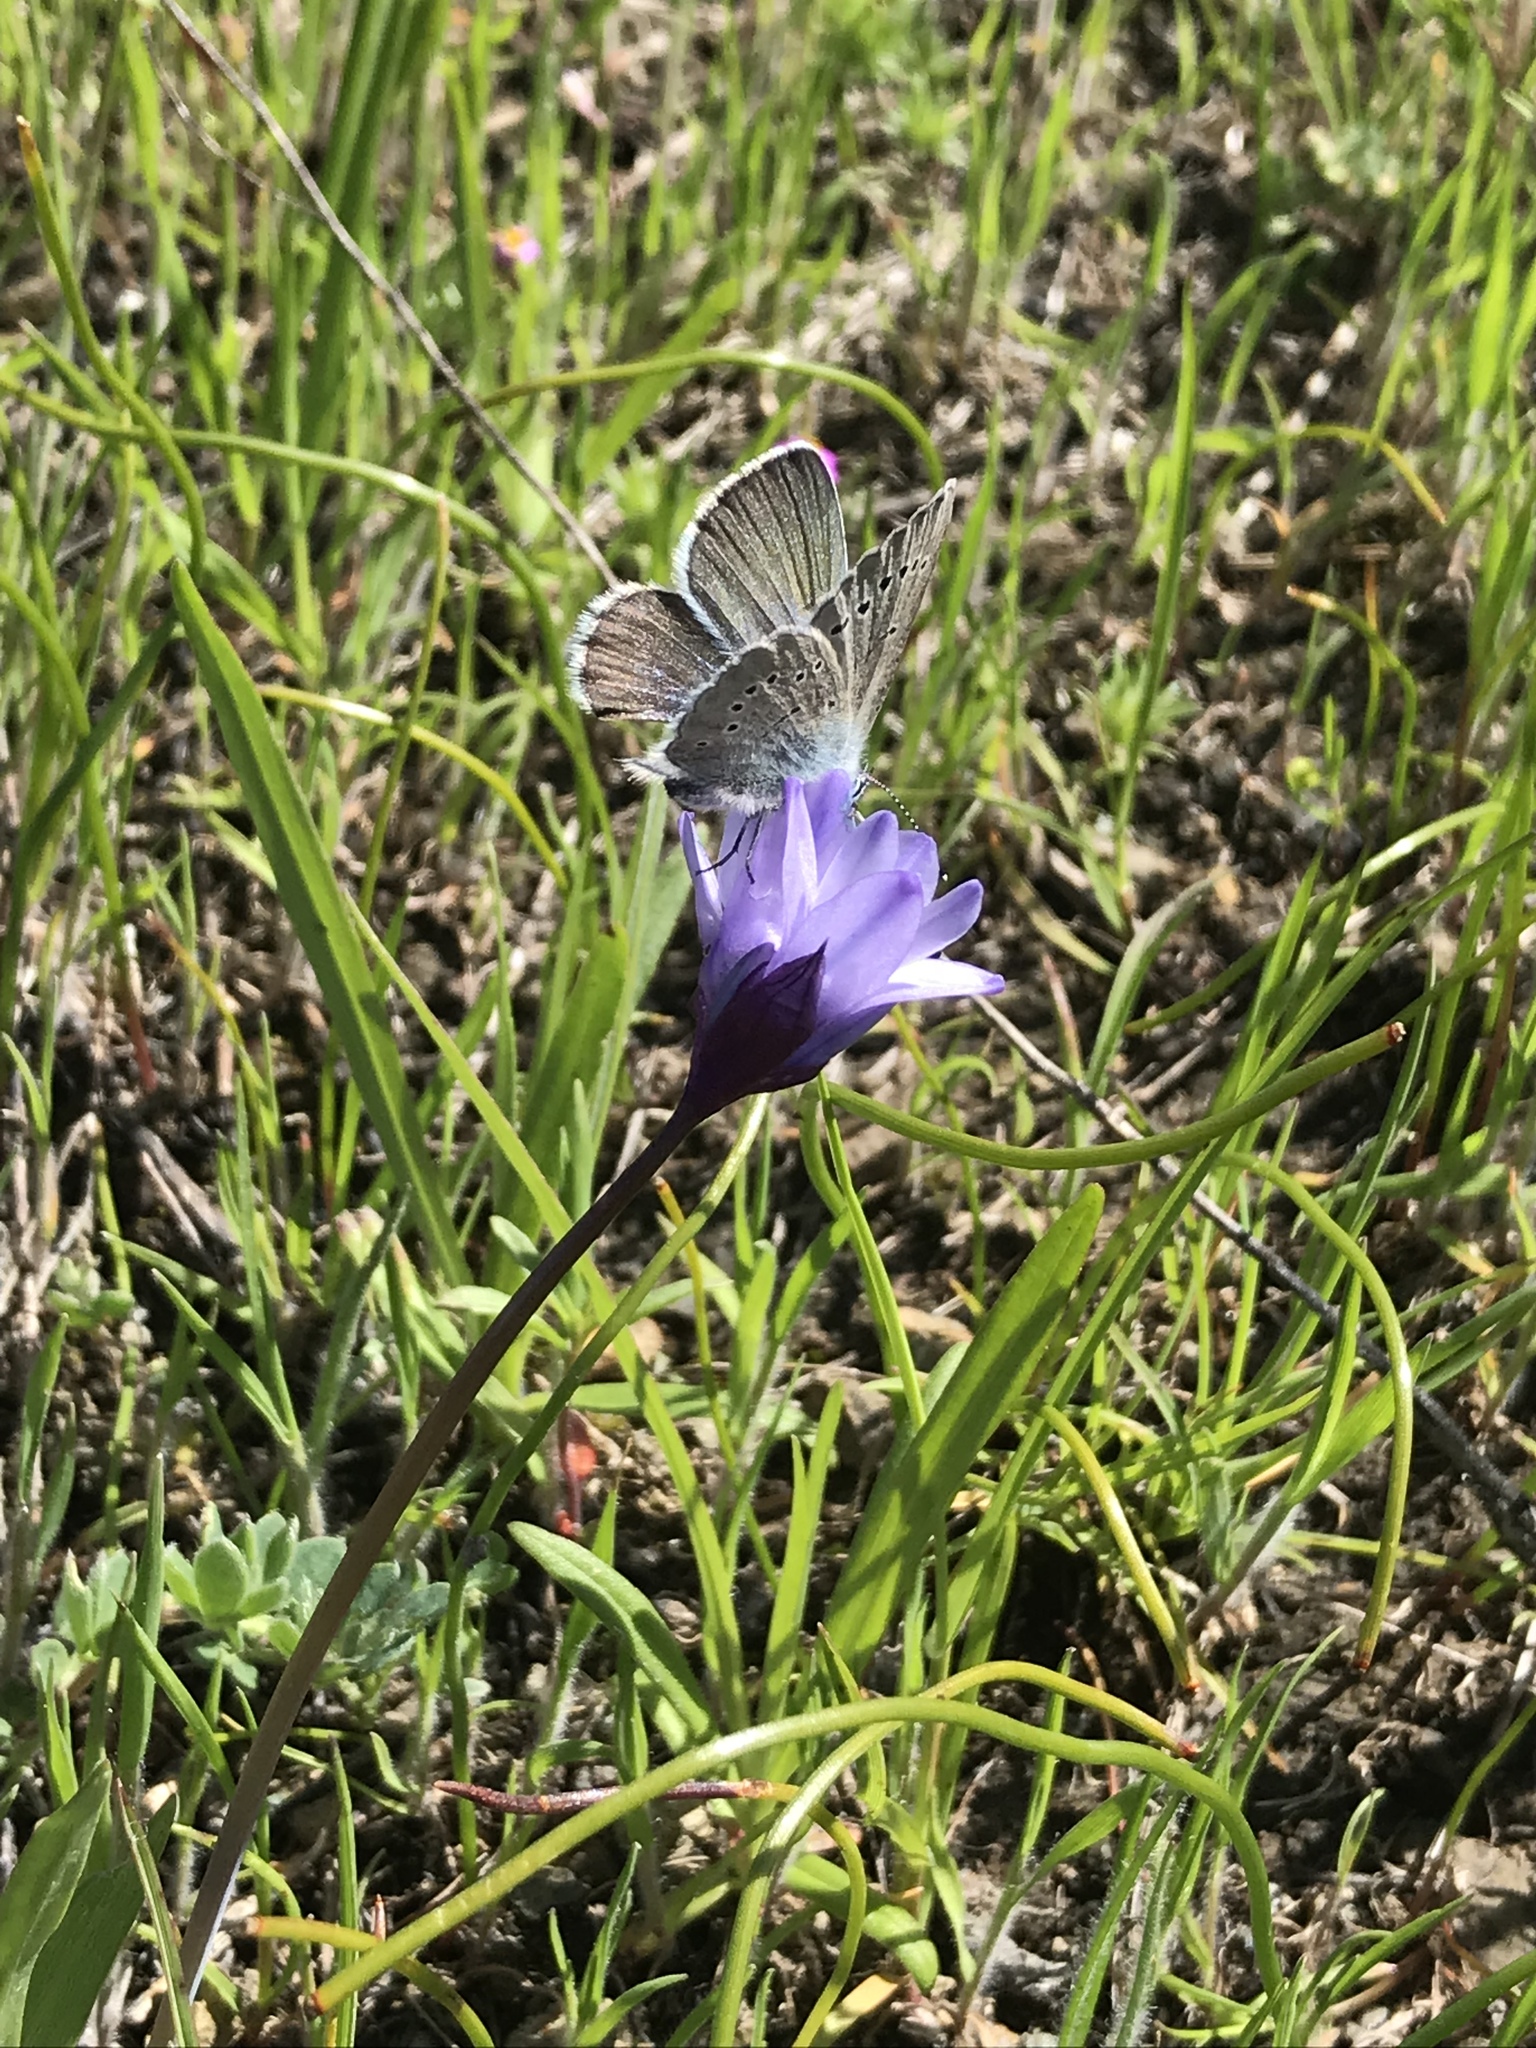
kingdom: Animalia
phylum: Arthropoda
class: Insecta
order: Lepidoptera
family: Lycaenidae
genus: Glaucopsyche
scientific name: Glaucopsyche lygdamus
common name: Silvery blue
